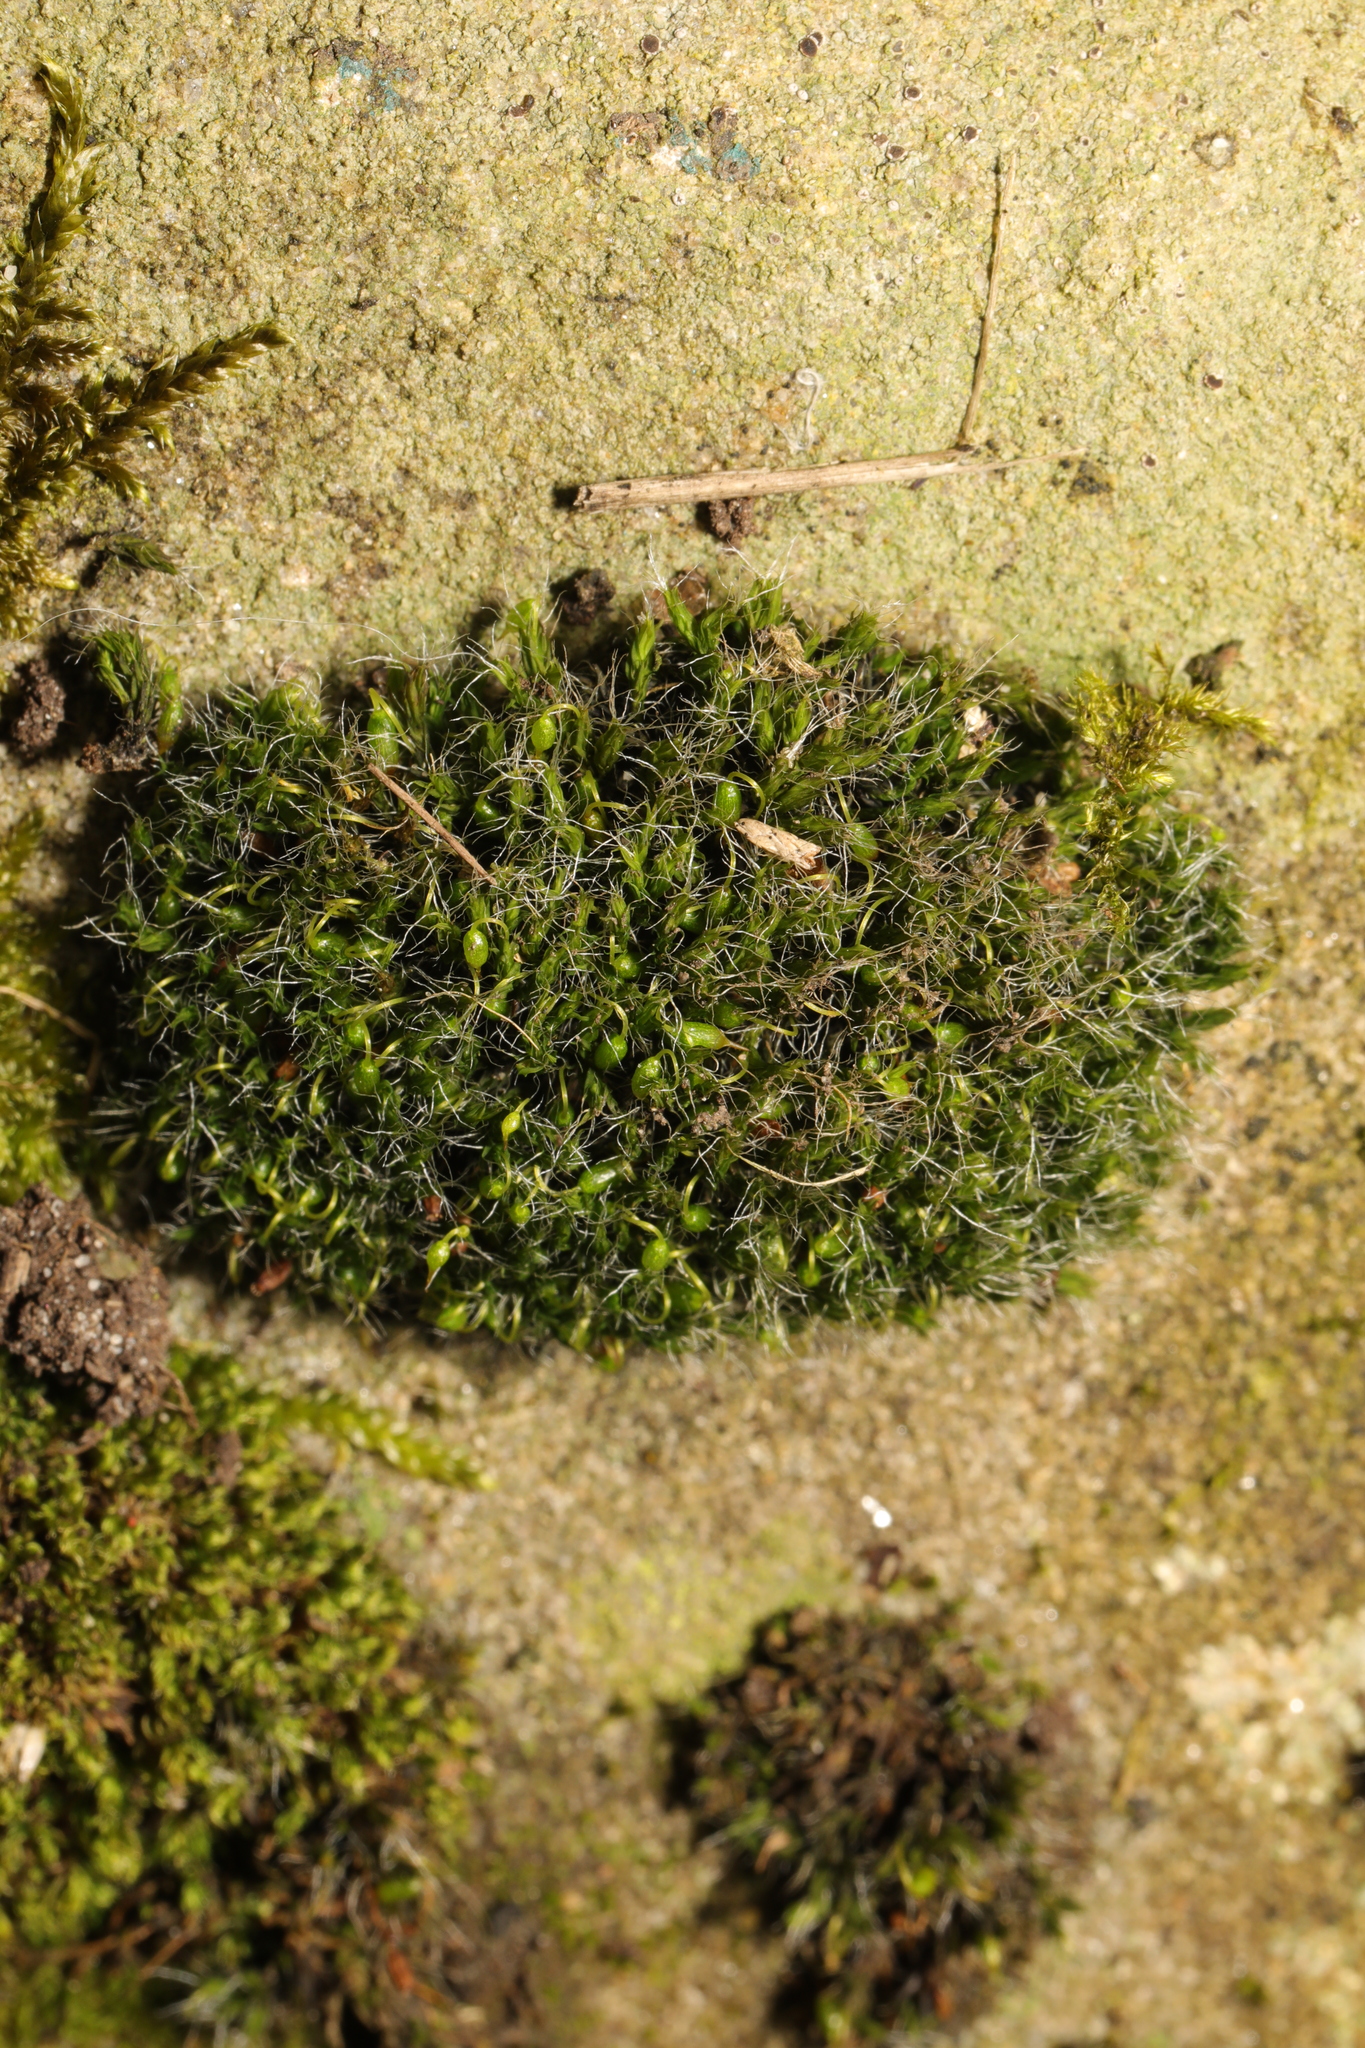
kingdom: Plantae
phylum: Bryophyta
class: Bryopsida
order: Grimmiales
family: Grimmiaceae
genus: Grimmia
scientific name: Grimmia pulvinata
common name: Grey-cushioned grimmia
